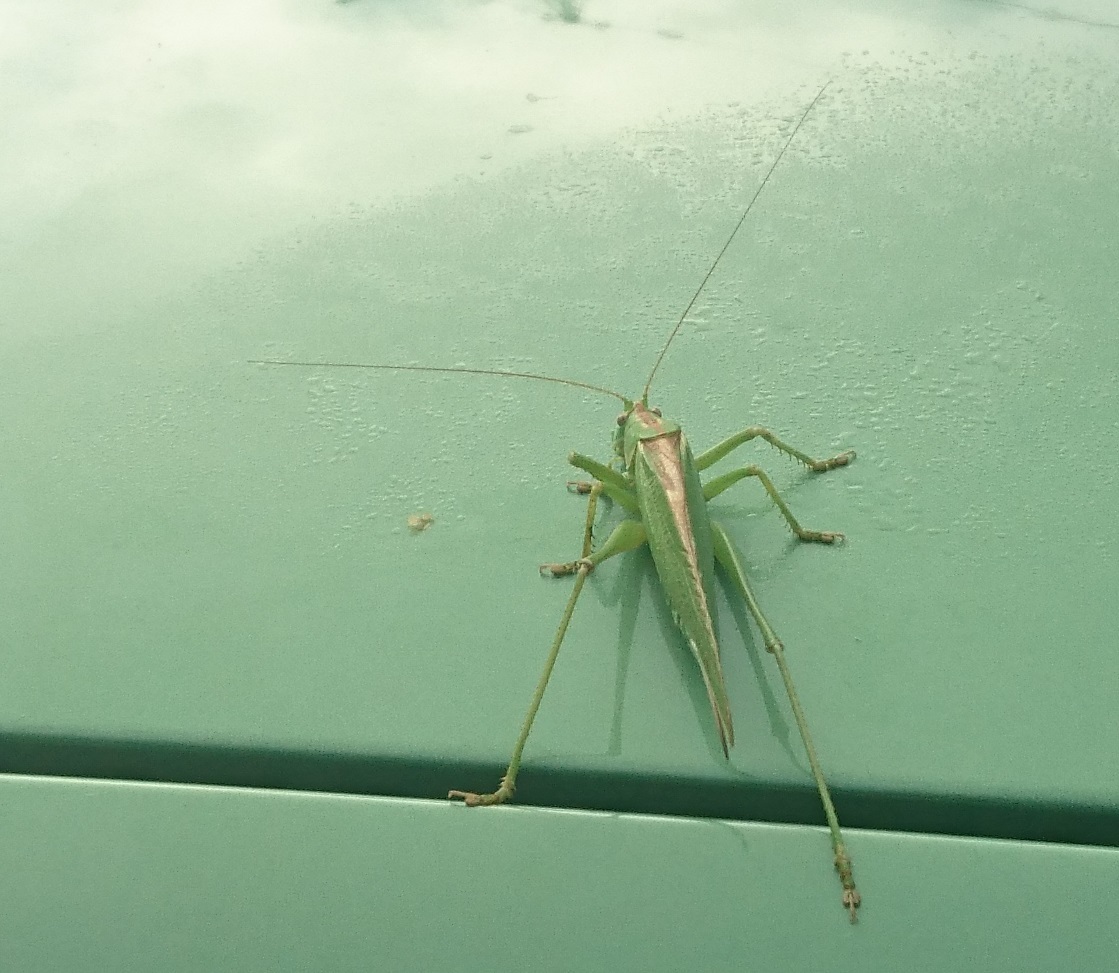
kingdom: Animalia
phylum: Arthropoda
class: Insecta
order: Orthoptera
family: Tettigoniidae
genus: Tettigonia
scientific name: Tettigonia viridissima
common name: Great green bush-cricket
